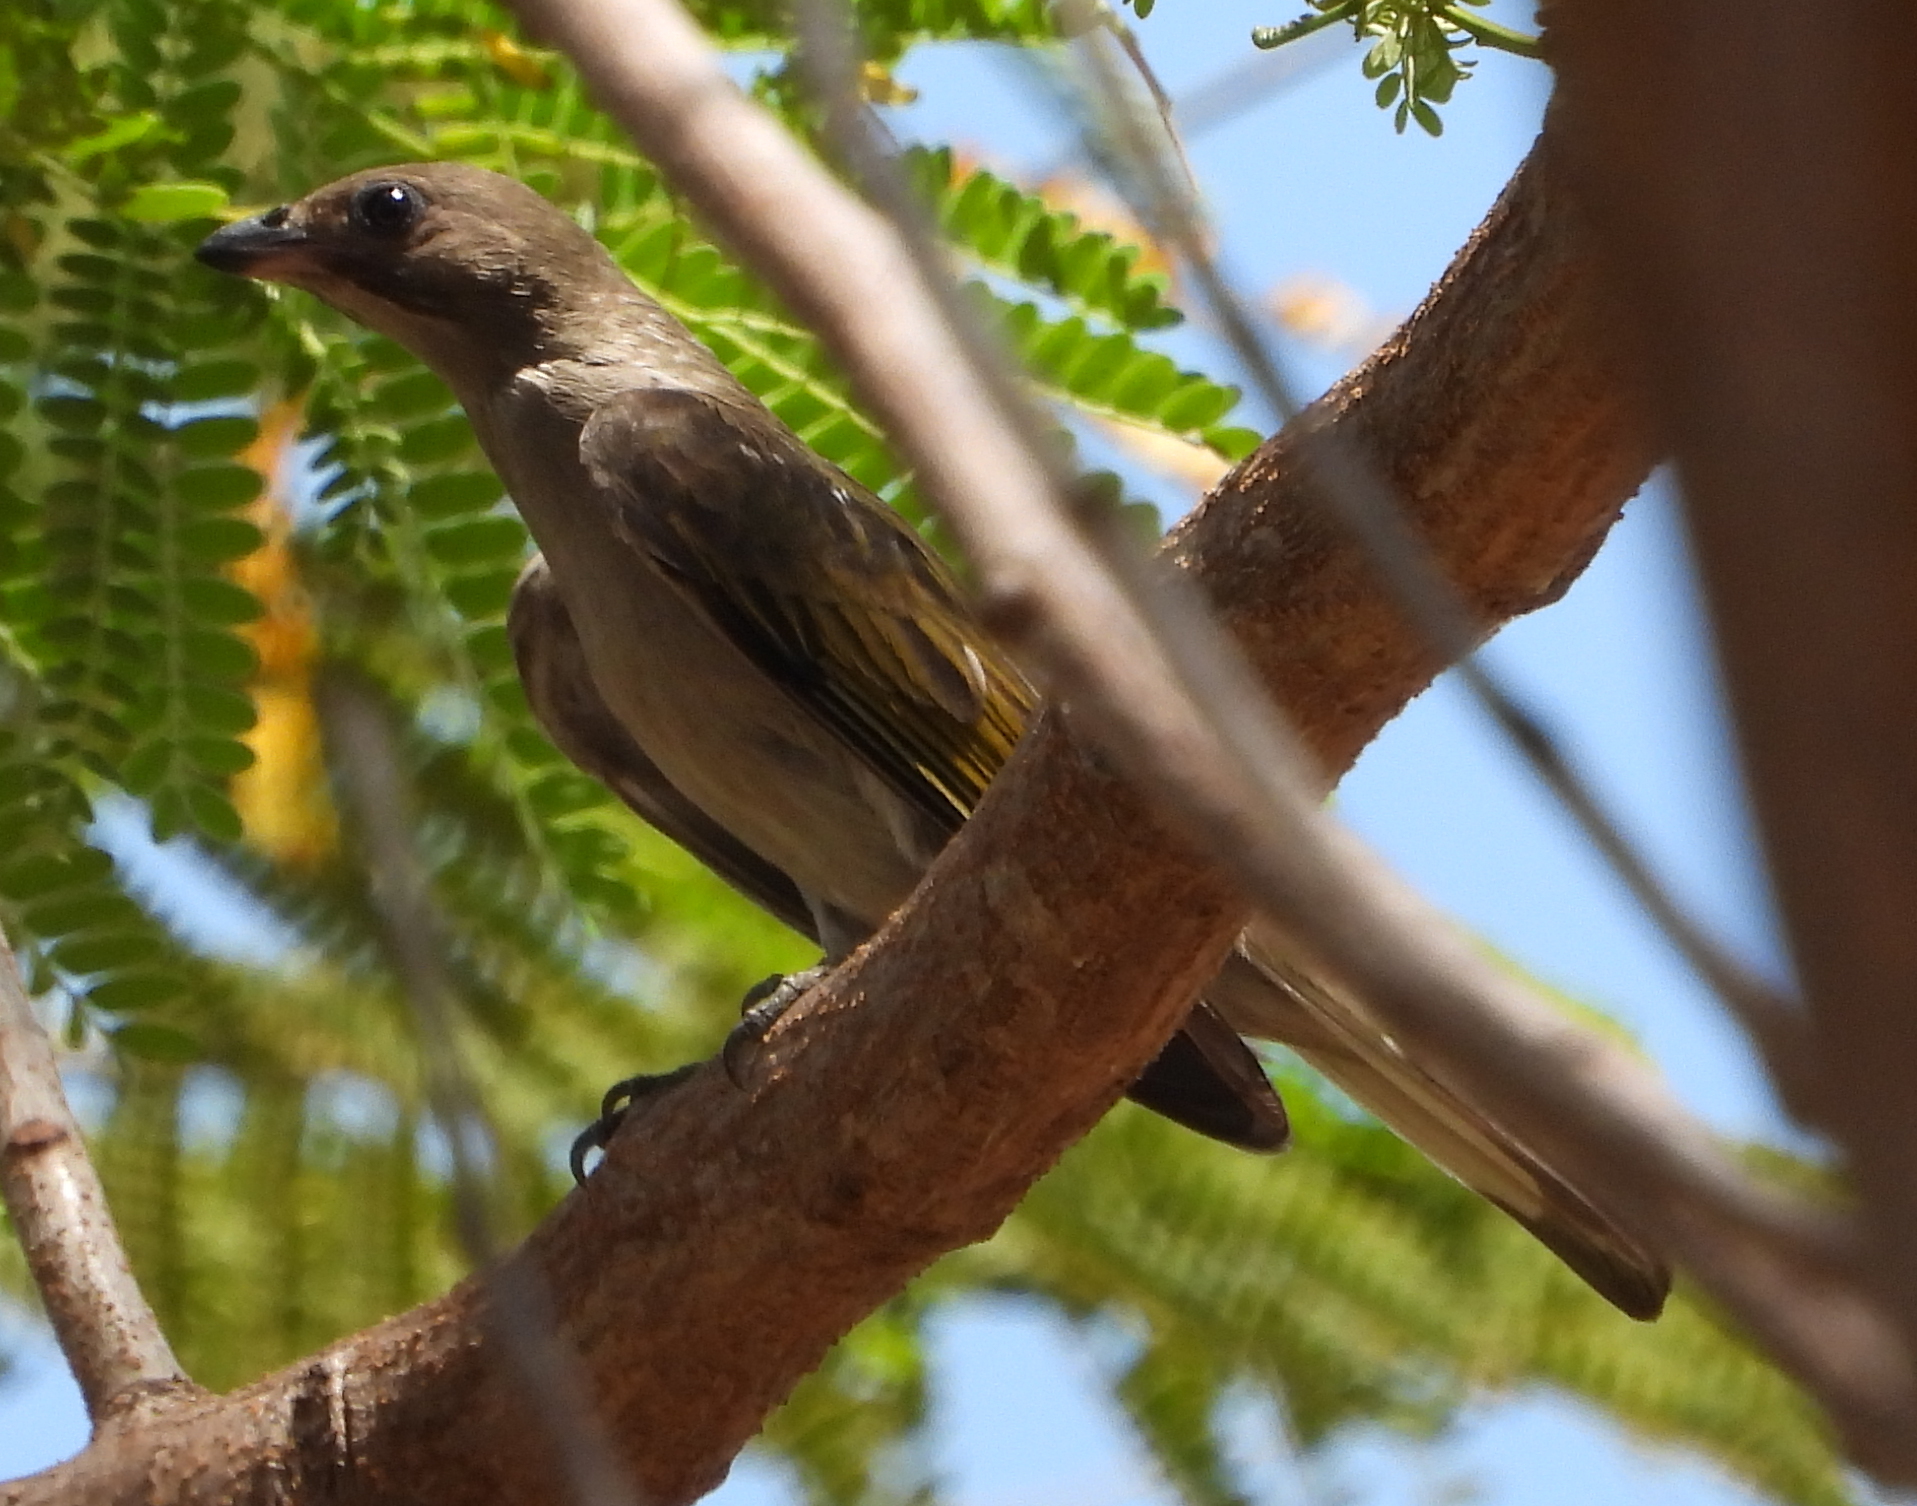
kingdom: Animalia
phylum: Chordata
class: Aves
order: Piciformes
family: Indicatoridae
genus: Indicator
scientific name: Indicator minor
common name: Lesser honeyguide
